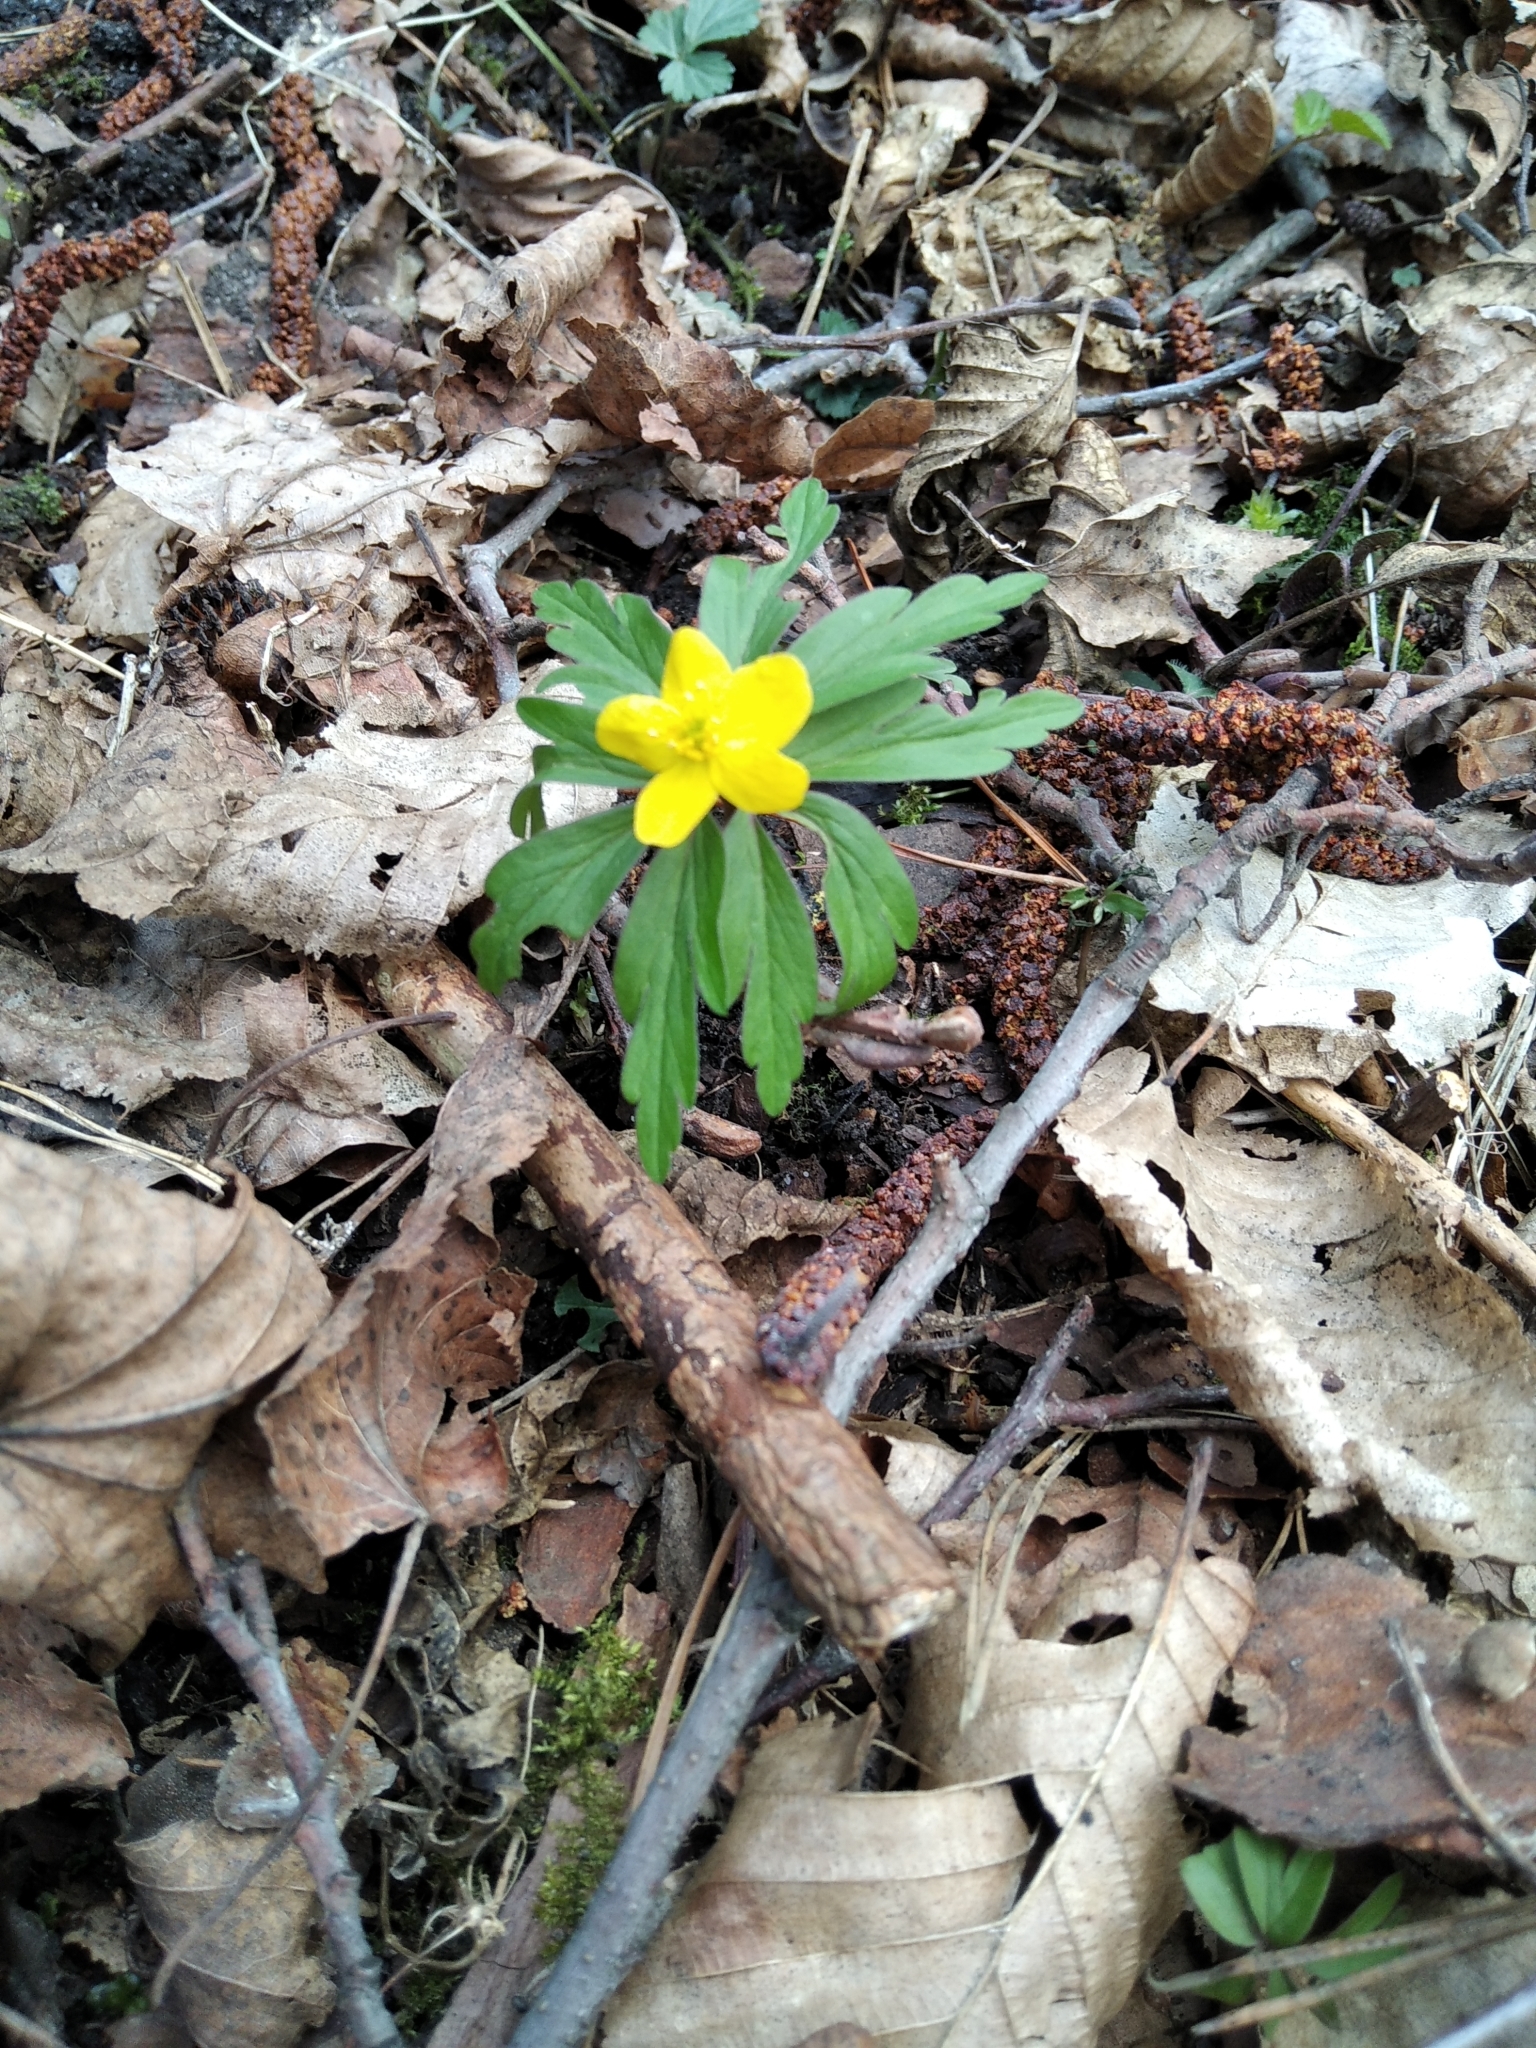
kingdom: Plantae
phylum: Tracheophyta
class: Magnoliopsida
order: Ranunculales
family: Ranunculaceae
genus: Anemone
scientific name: Anemone ranunculoides
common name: Yellow anemone
